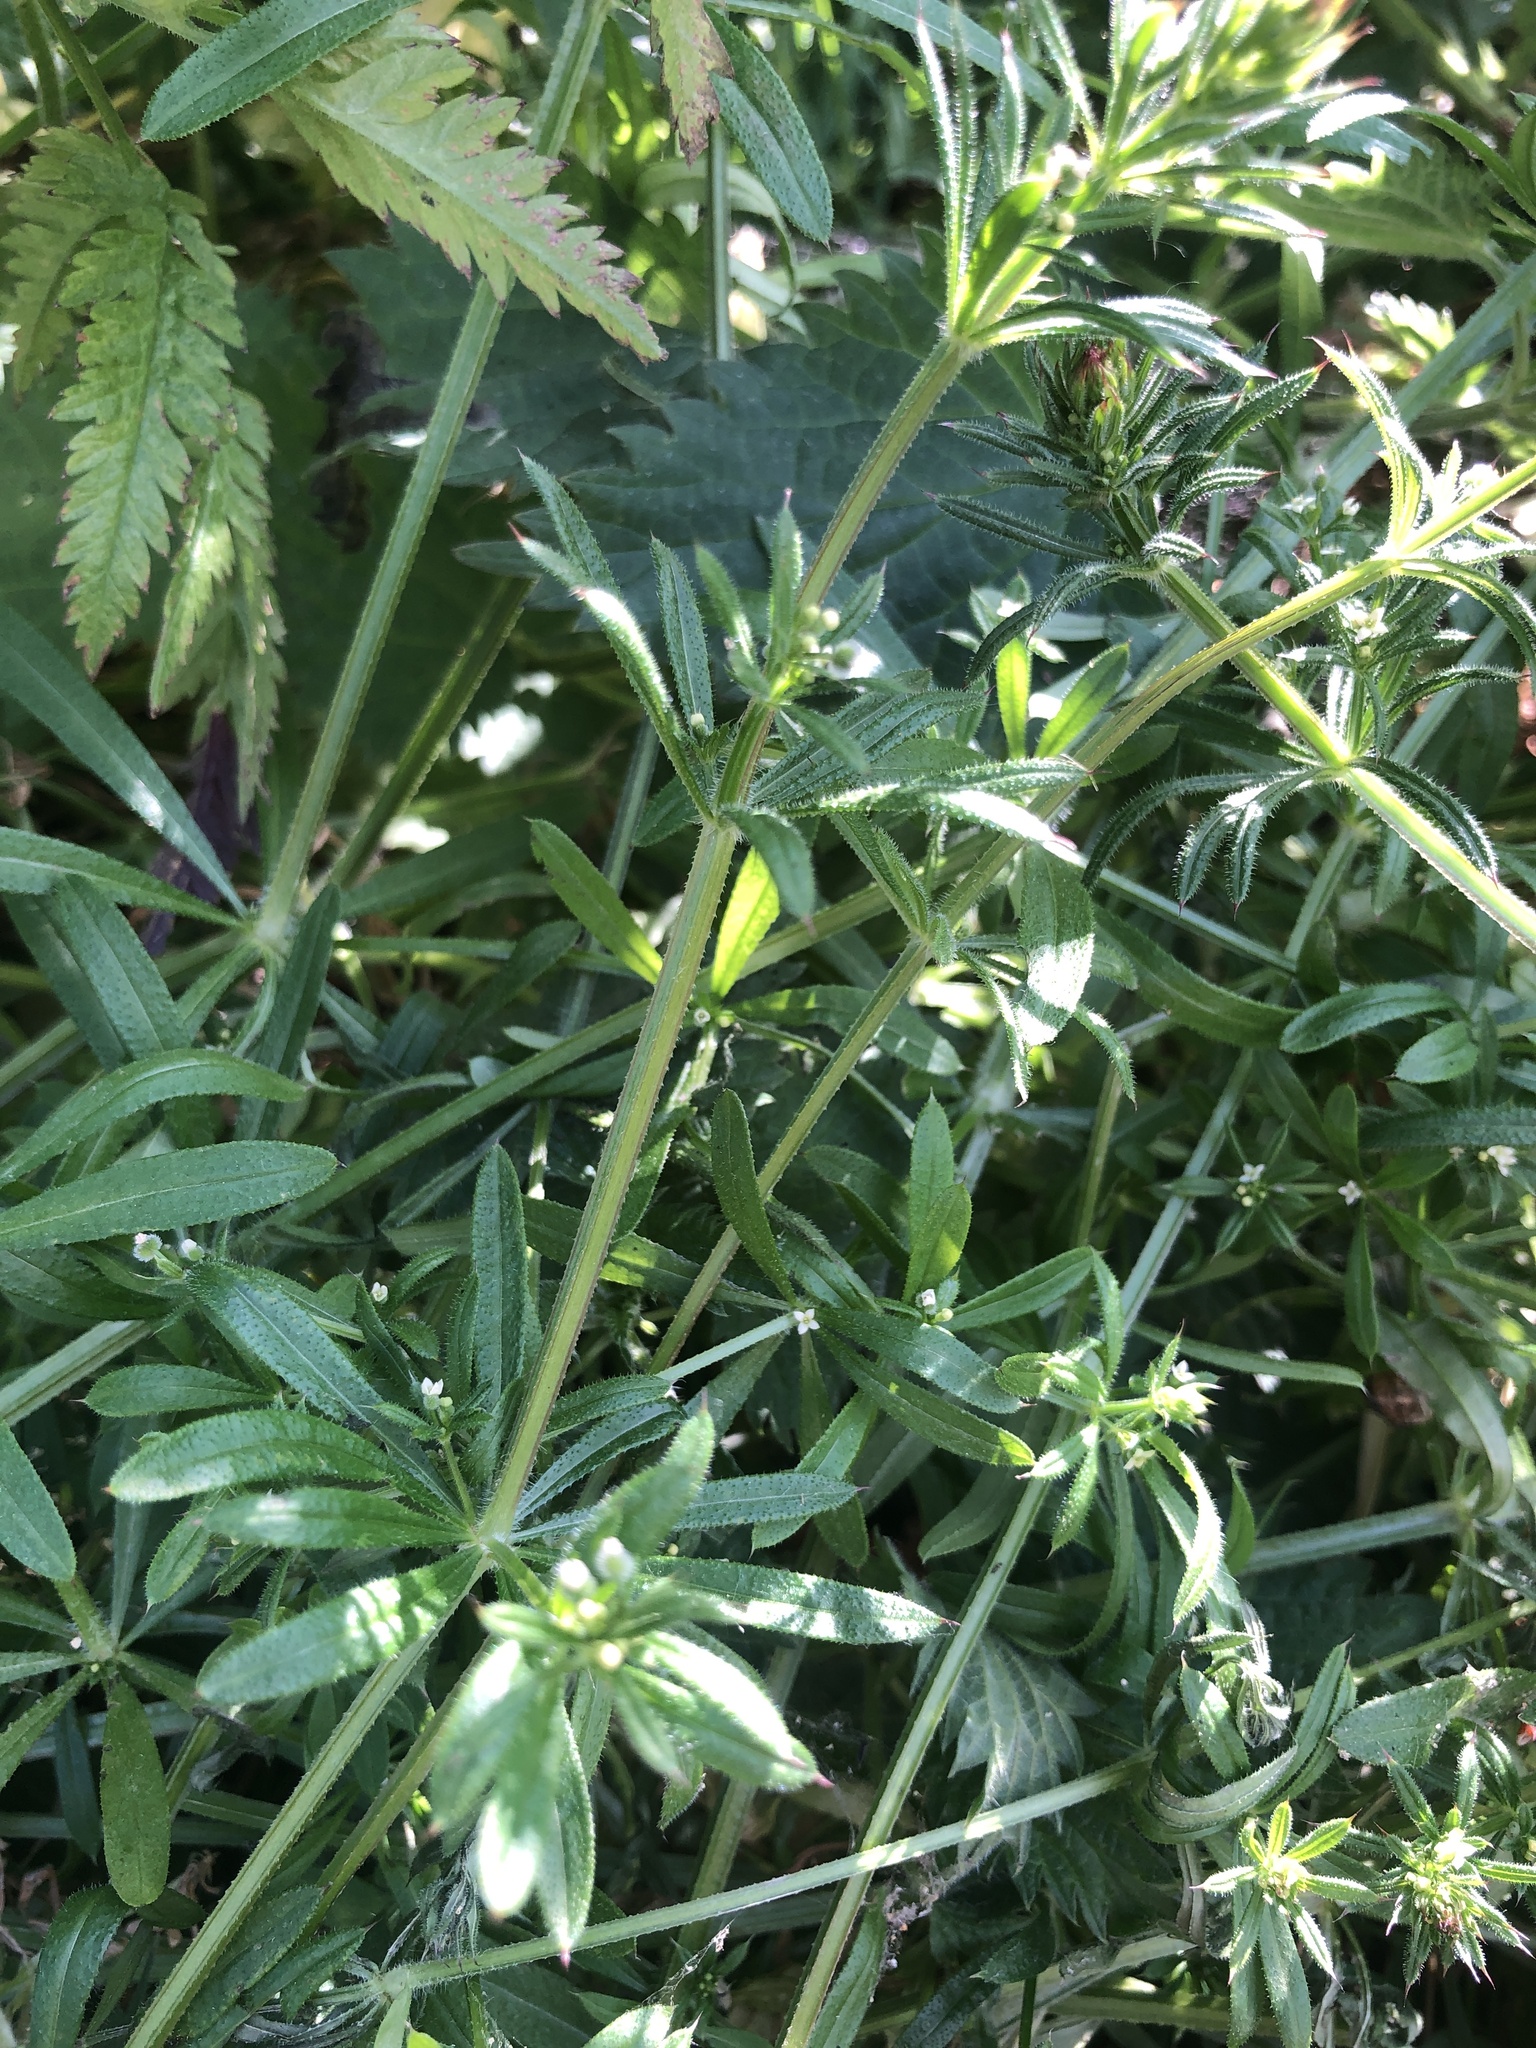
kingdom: Plantae
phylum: Tracheophyta
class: Magnoliopsida
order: Gentianales
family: Rubiaceae
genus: Galium
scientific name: Galium aparine
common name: Cleavers
